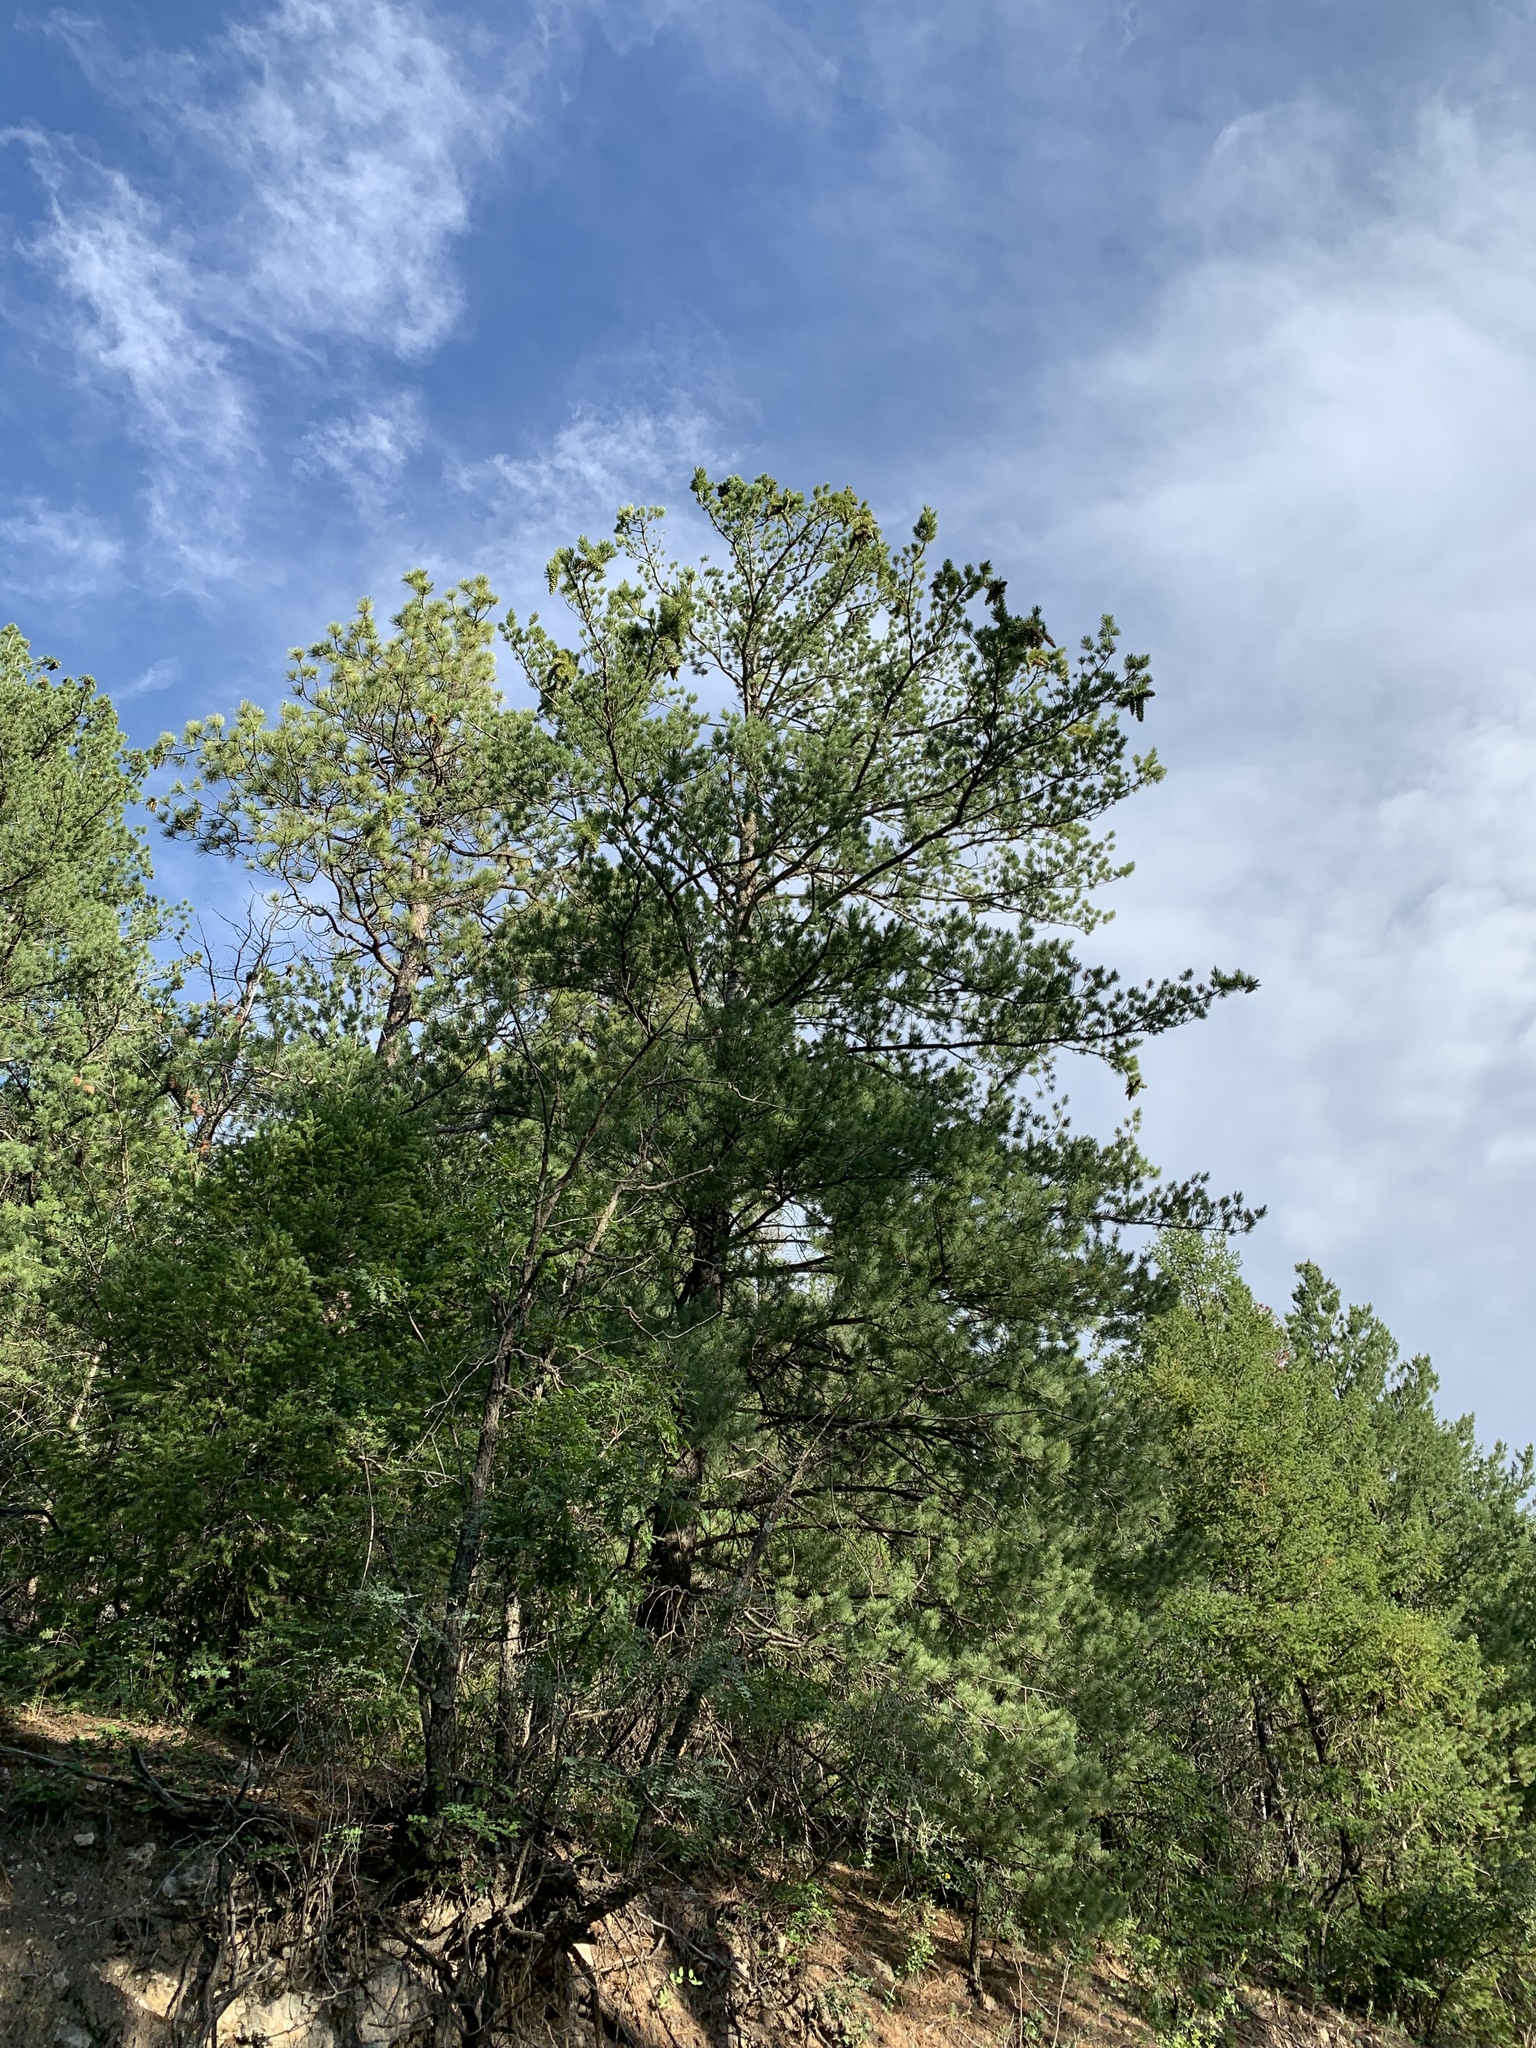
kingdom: Plantae
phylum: Tracheophyta
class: Pinopsida
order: Pinales
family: Pinaceae
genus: Pinus
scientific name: Pinus strobiformis
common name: Southwestern white pine
